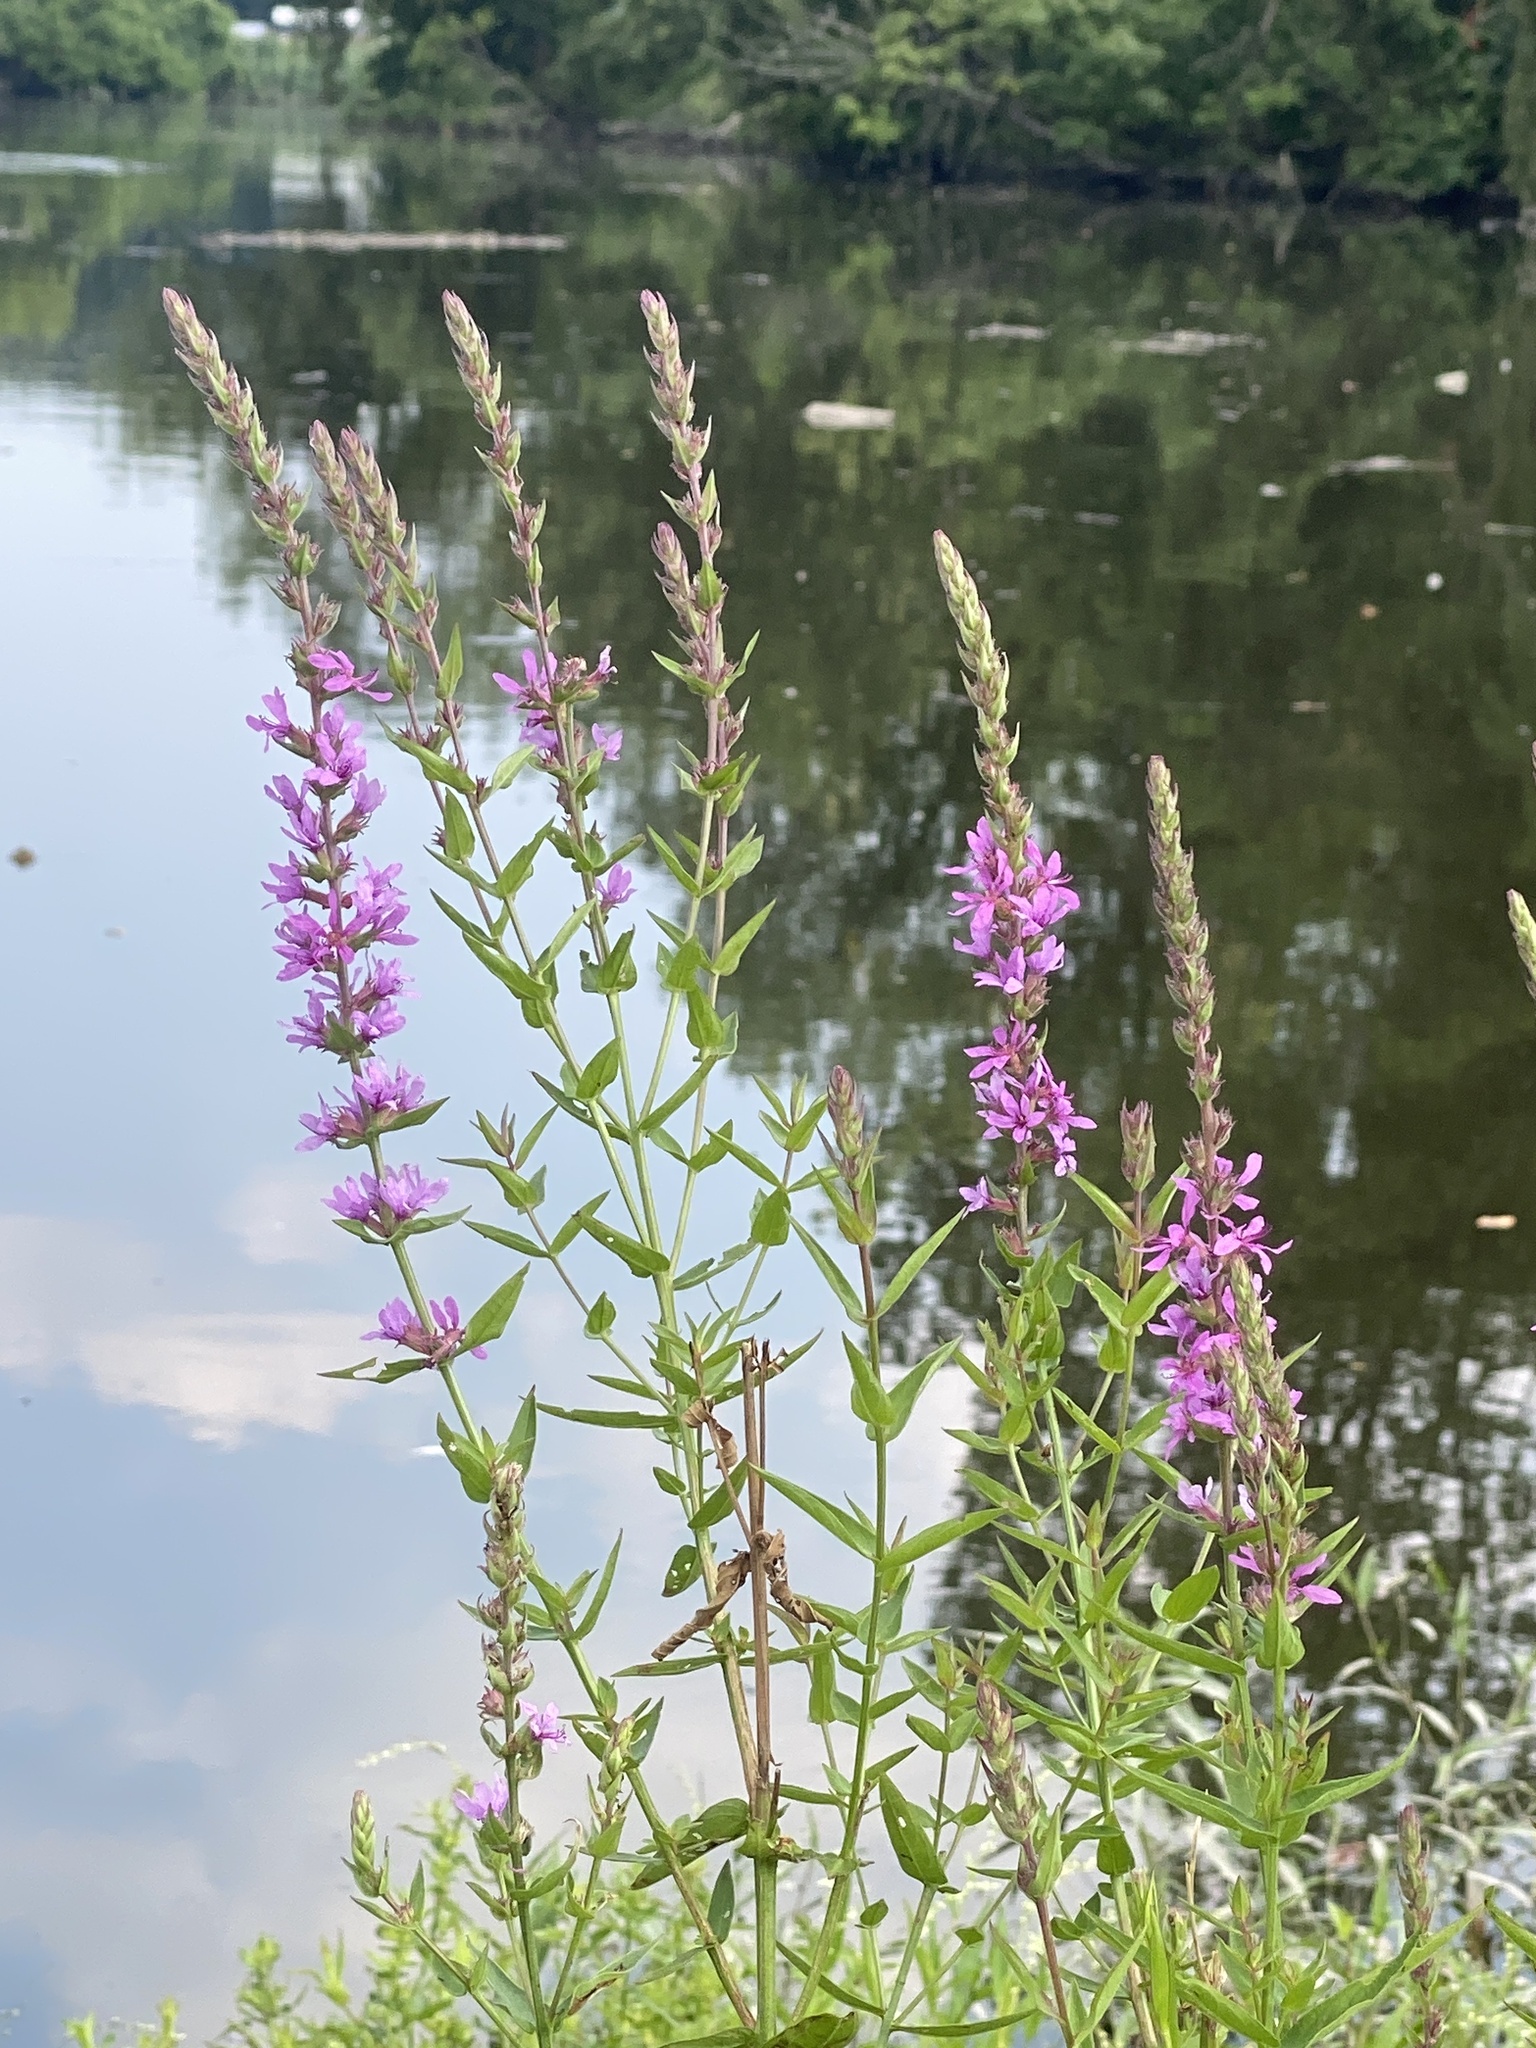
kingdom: Plantae
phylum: Tracheophyta
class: Magnoliopsida
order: Myrtales
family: Lythraceae
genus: Lythrum
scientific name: Lythrum salicaria
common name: Purple loosestrife
